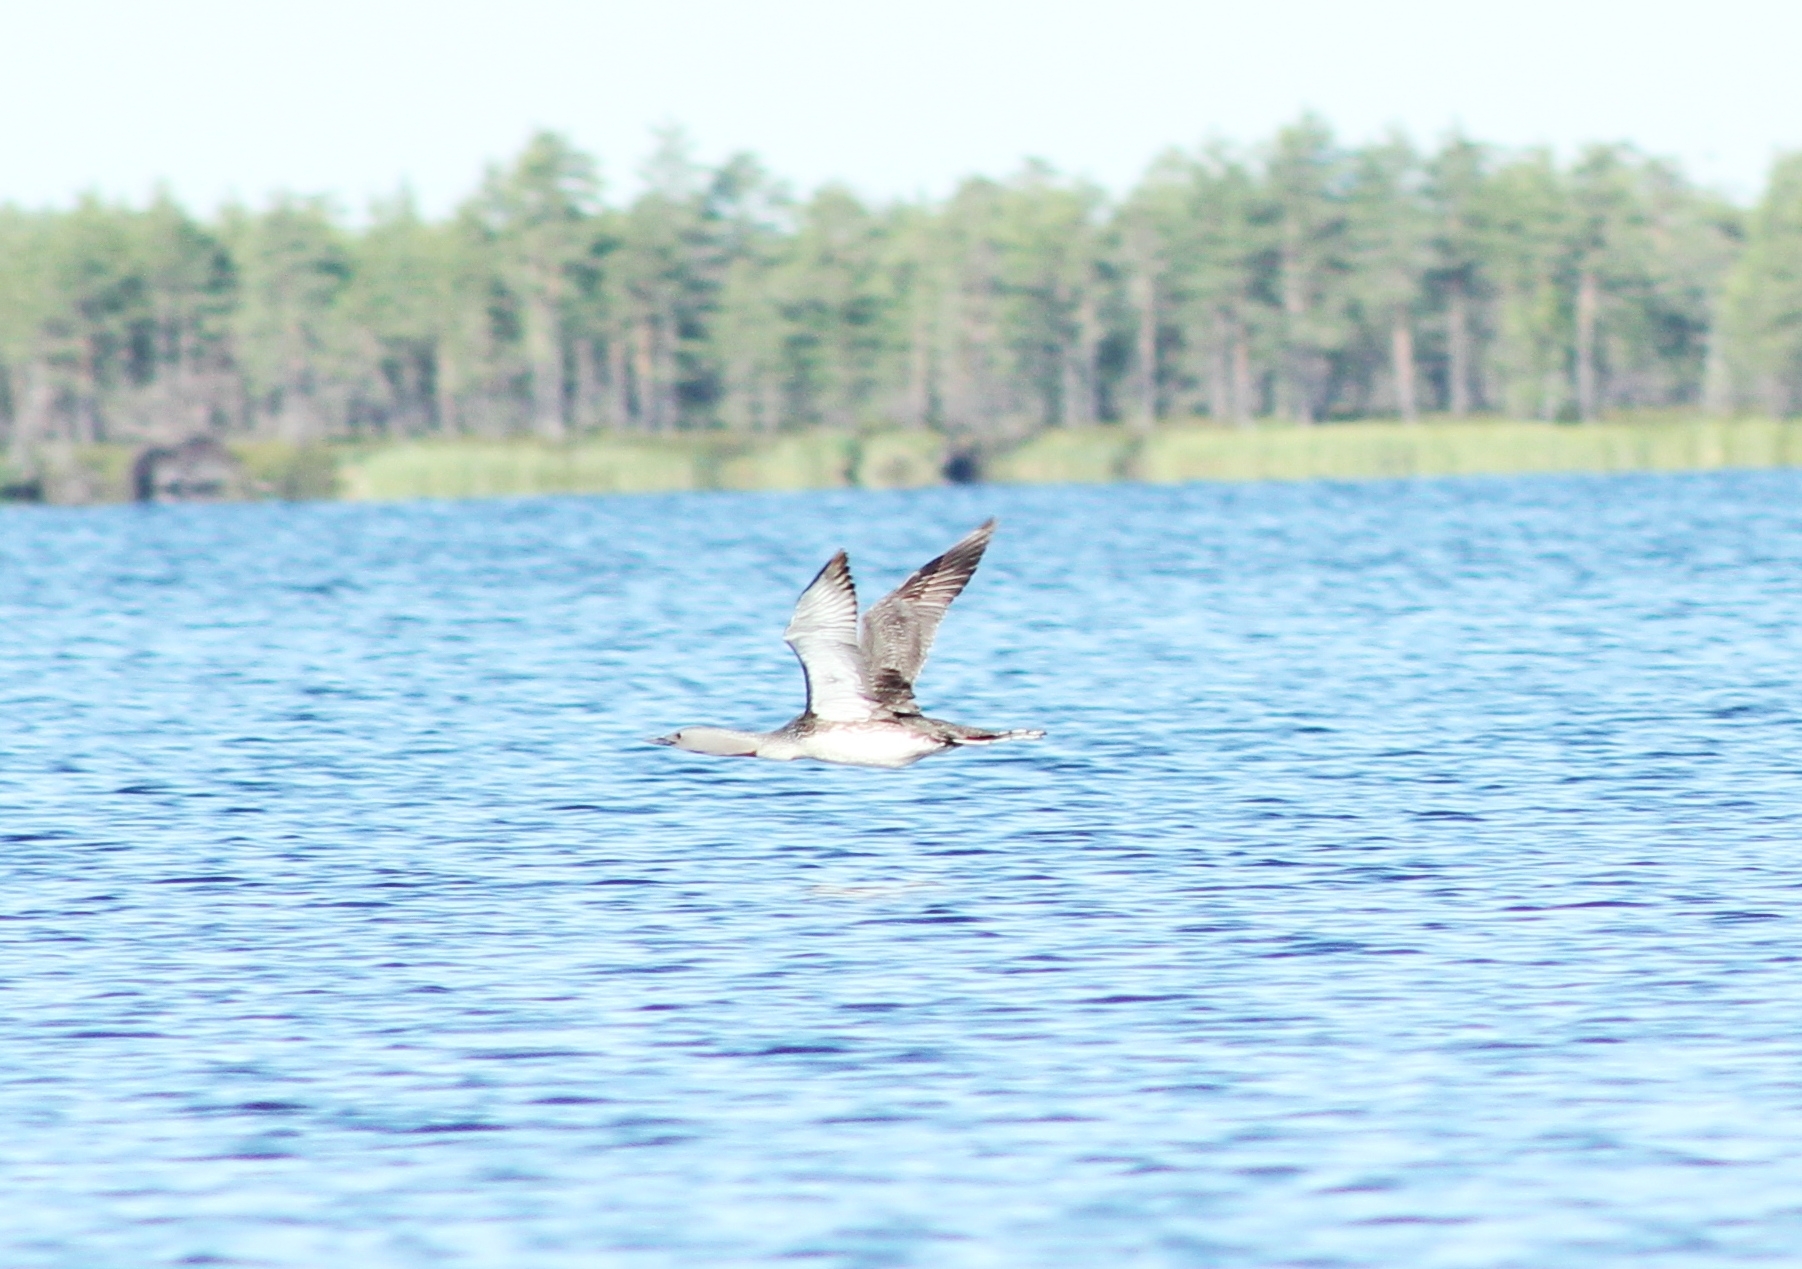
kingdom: Animalia
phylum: Chordata
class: Aves
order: Gaviiformes
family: Gaviidae
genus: Gavia
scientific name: Gavia stellata
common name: Red-throated loon
